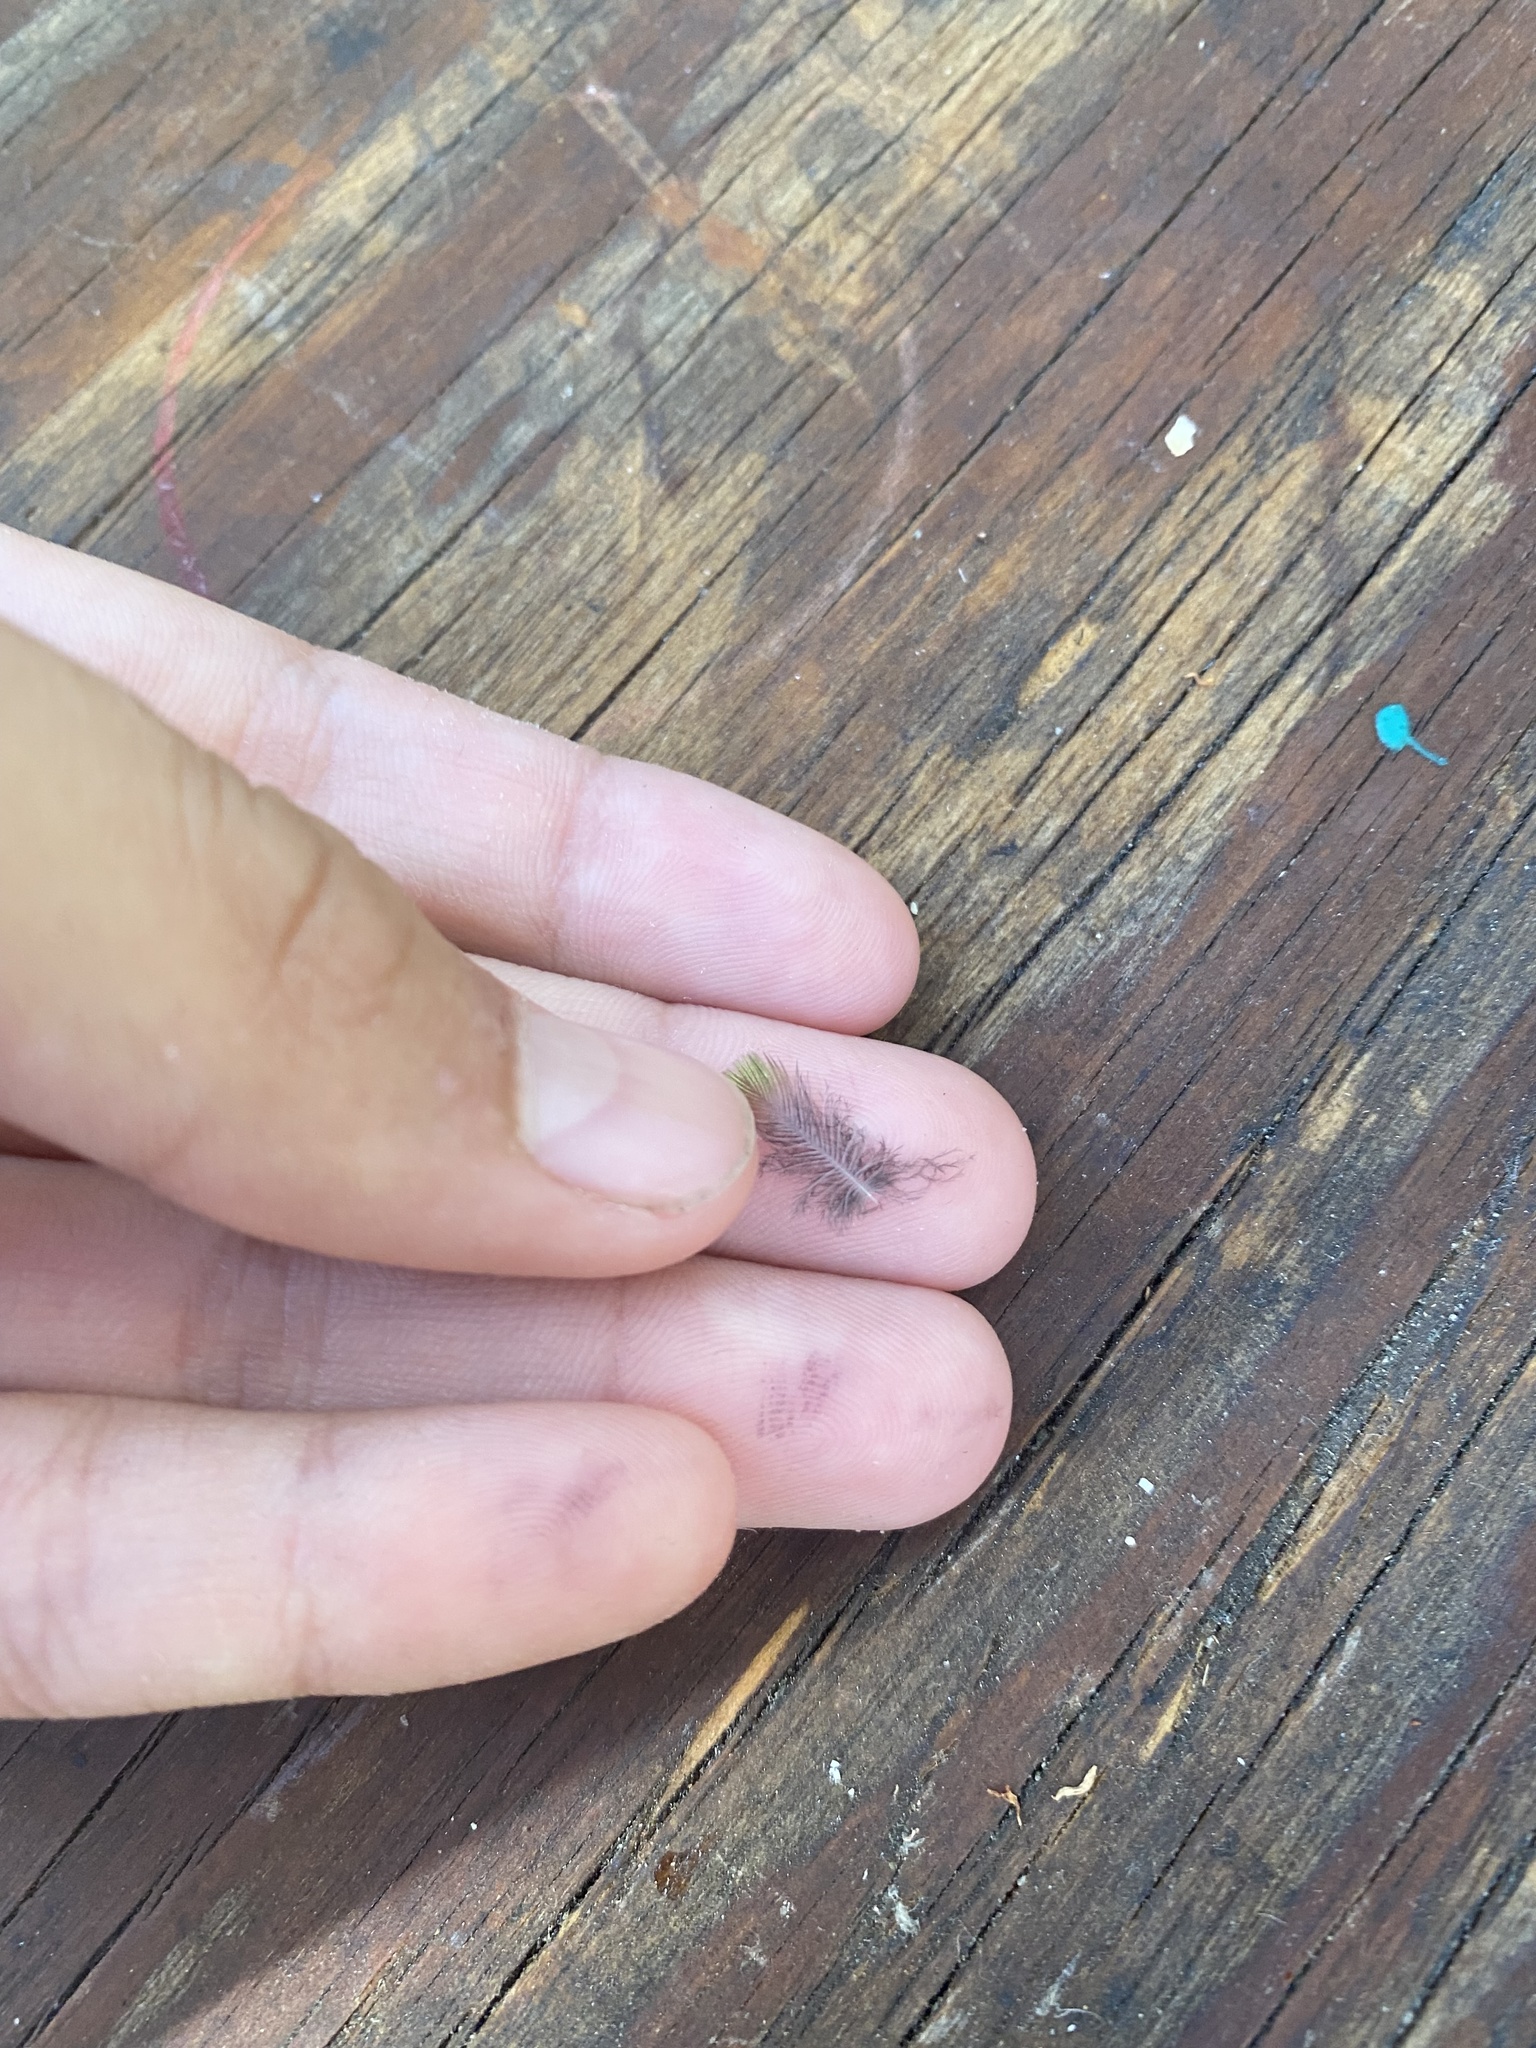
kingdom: Animalia
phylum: Chordata
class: Aves
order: Apodiformes
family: Trochilidae
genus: Calypte
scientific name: Calypte anna
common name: Anna's hummingbird
